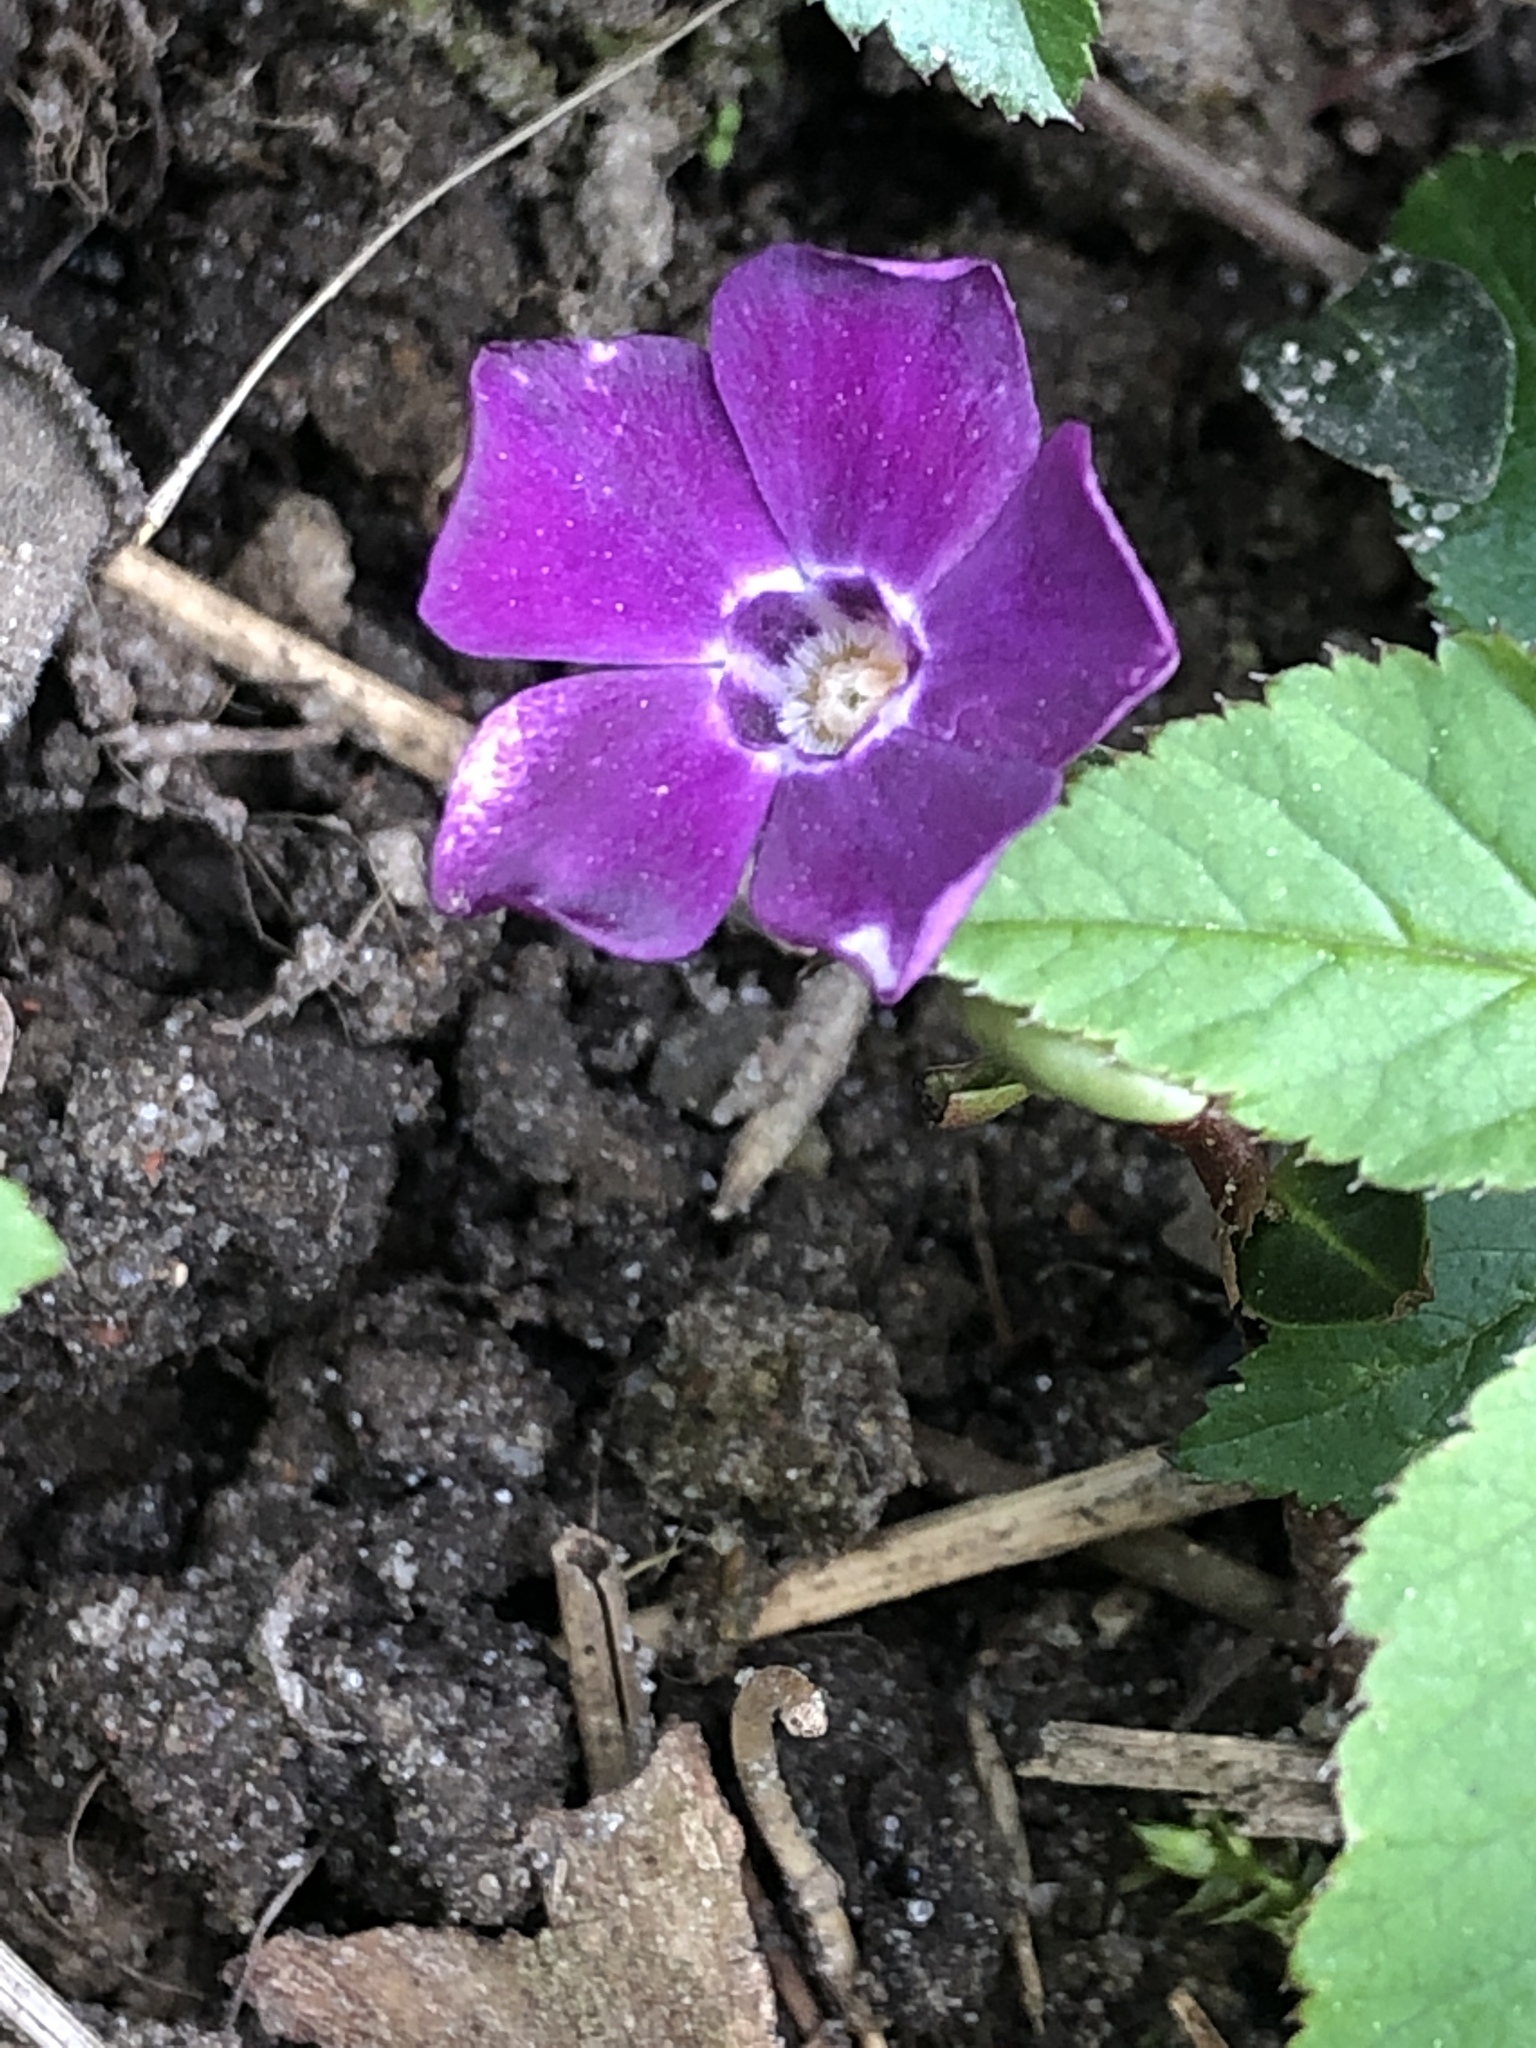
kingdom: Plantae
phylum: Tracheophyta
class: Magnoliopsida
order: Gentianales
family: Apocynaceae
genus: Vinca
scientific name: Vinca minor
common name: Lesser periwinkle
